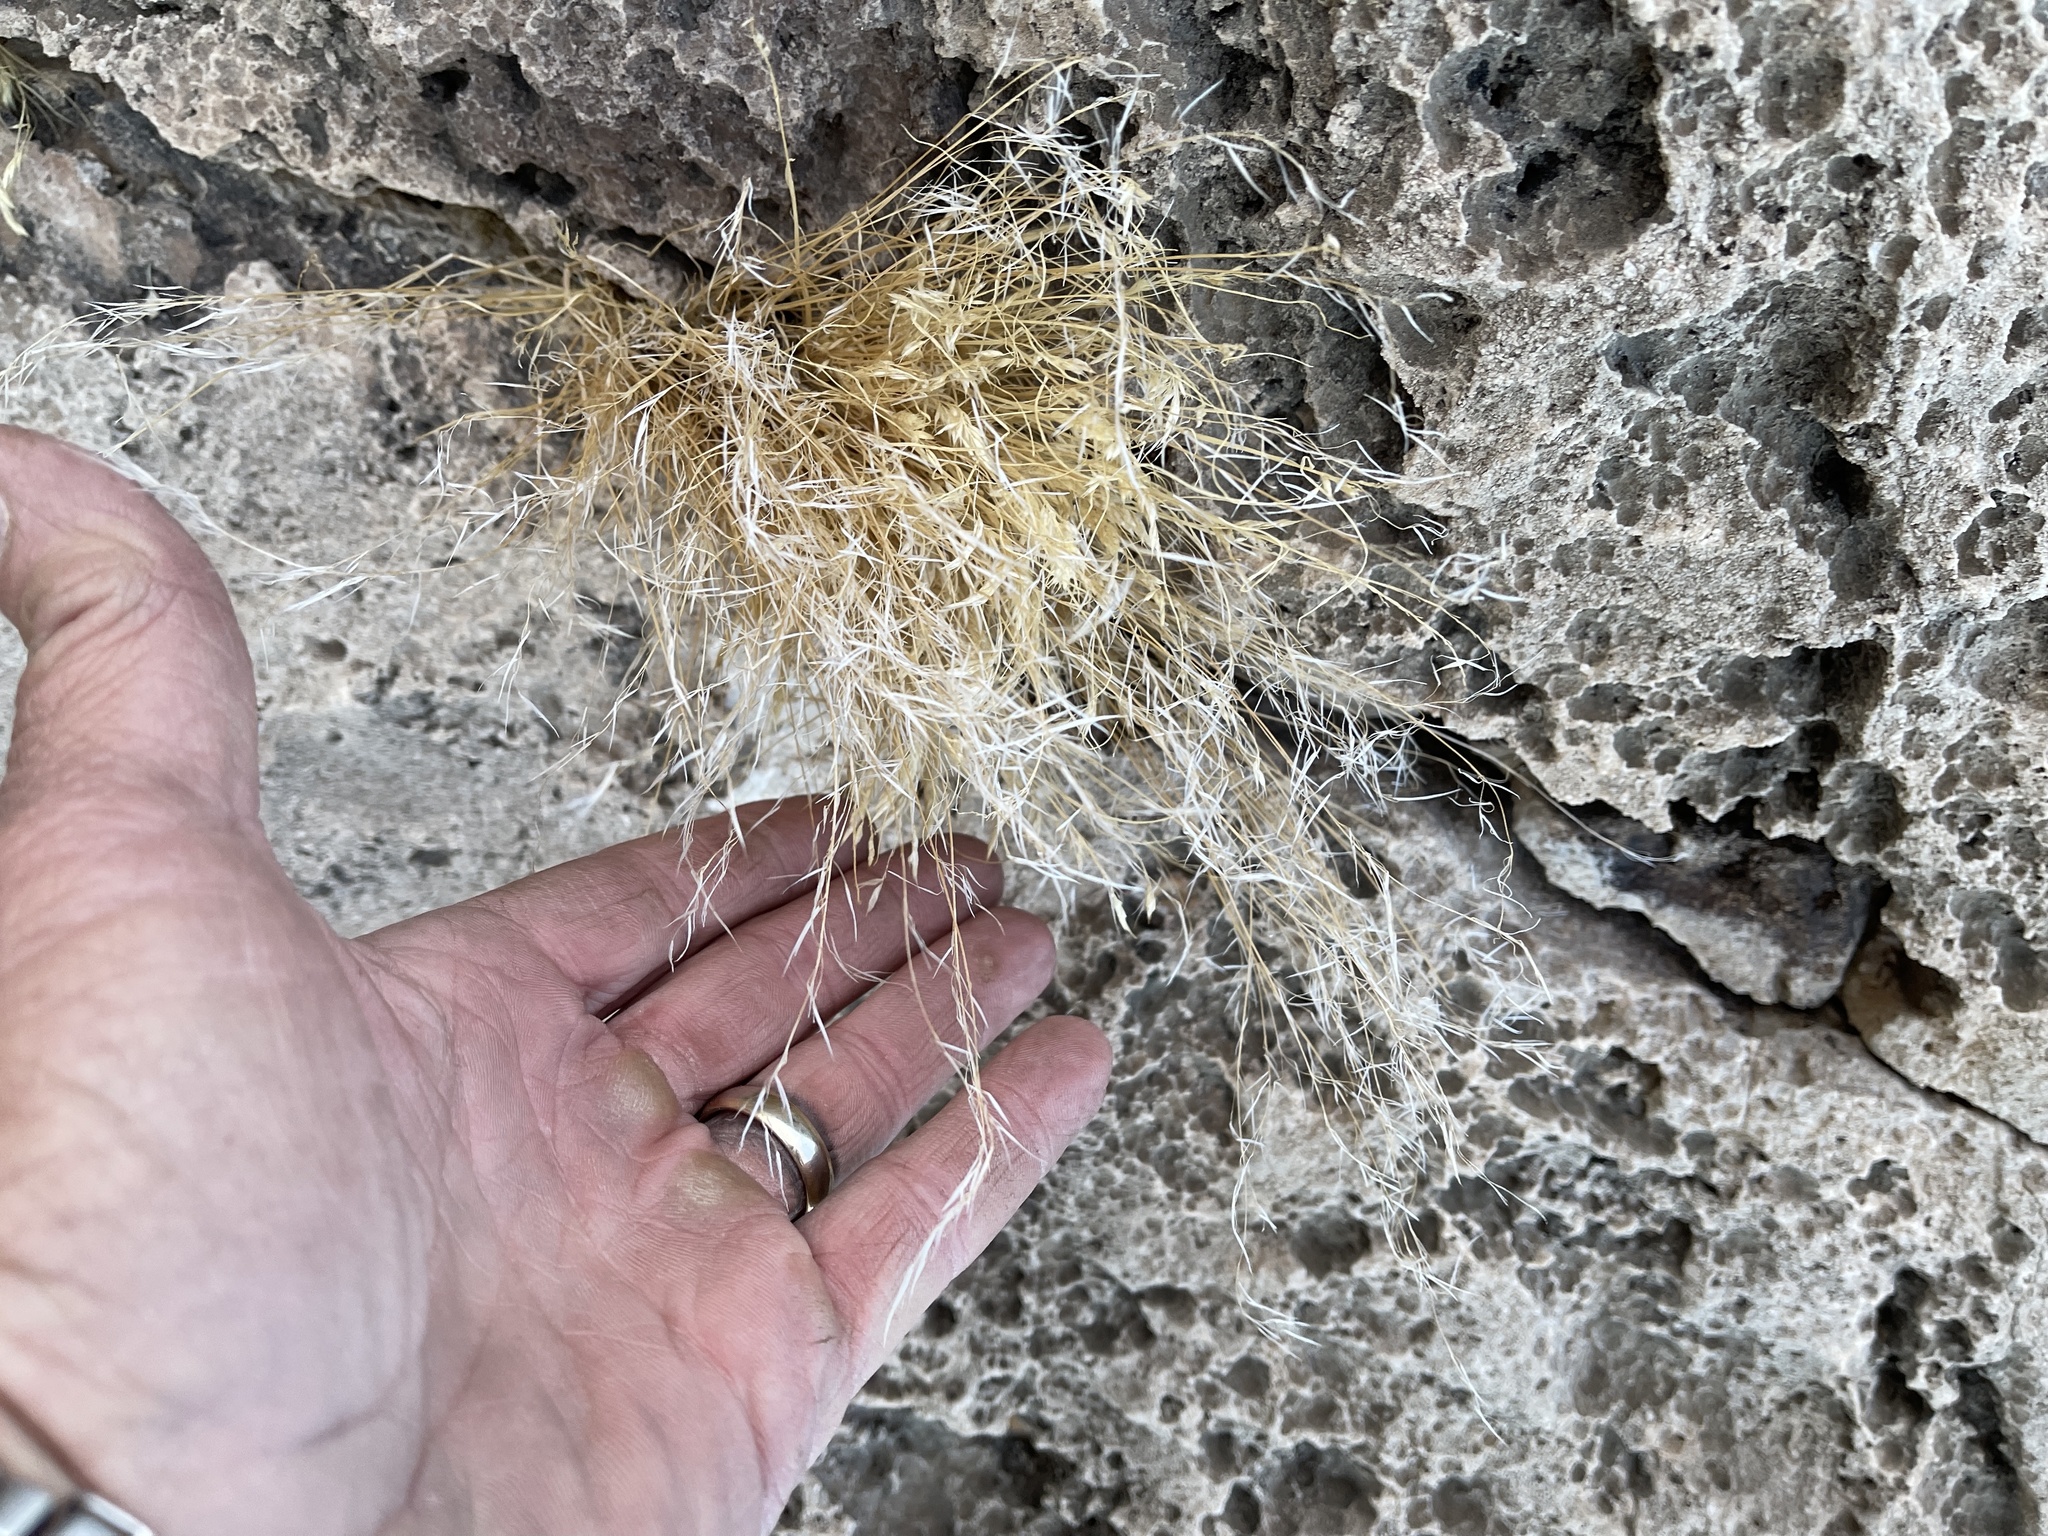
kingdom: Plantae
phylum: Tracheophyta
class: Liliopsida
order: Poales
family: Poaceae
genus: Pappostipa
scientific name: Pappostipa speciosa
